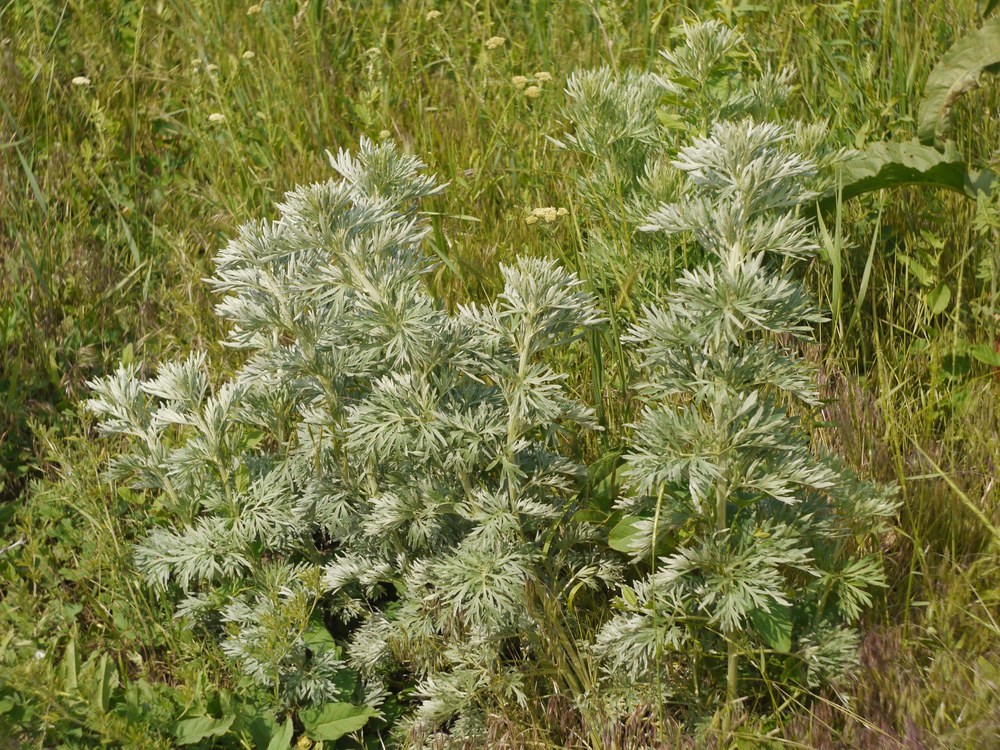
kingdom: Plantae
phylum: Tracheophyta
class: Magnoliopsida
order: Asterales
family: Asteraceae
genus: Artemisia
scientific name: Artemisia absinthium
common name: Wormwood
